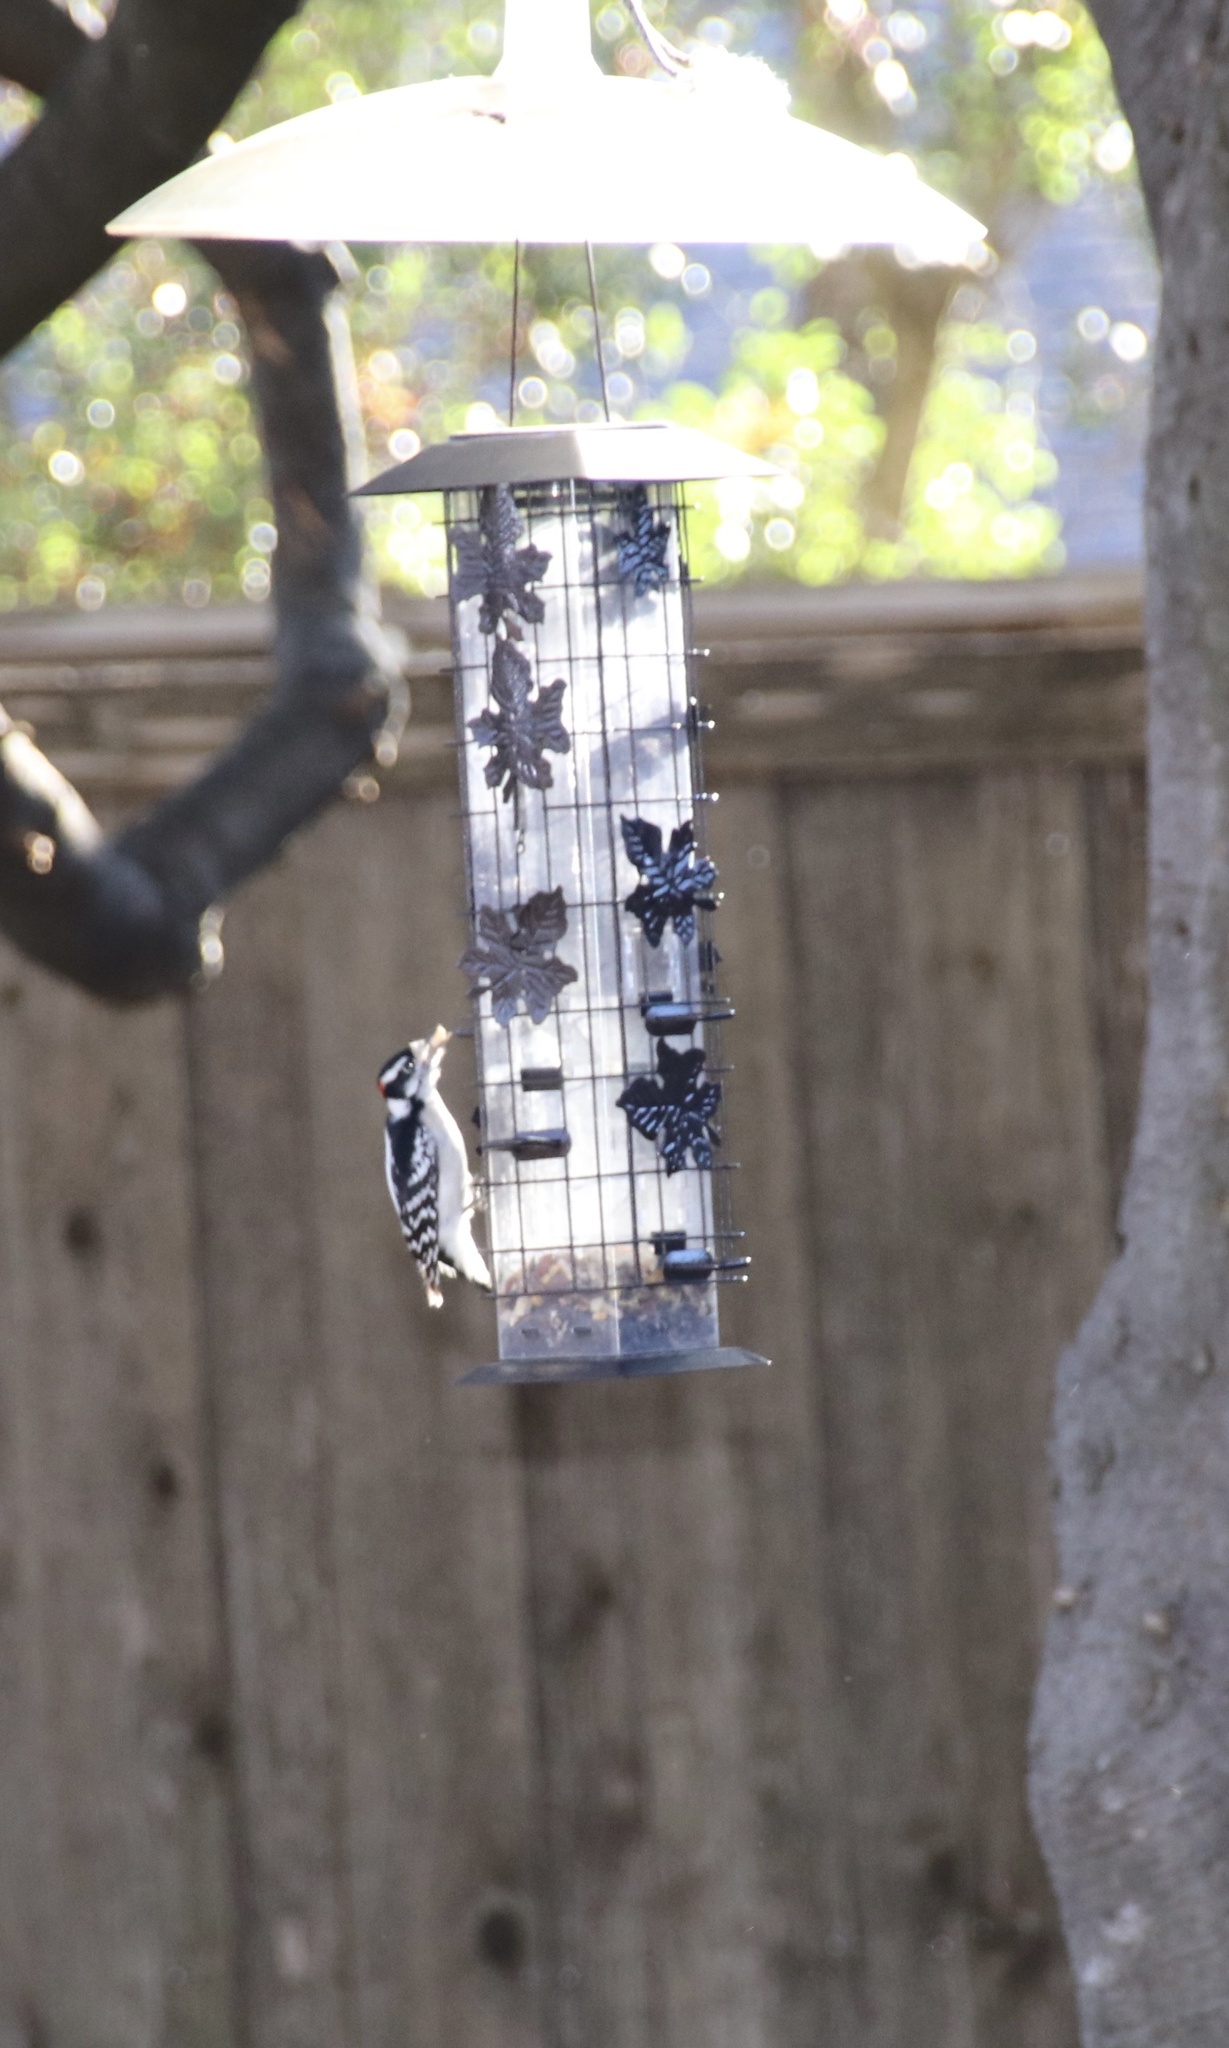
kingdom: Animalia
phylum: Chordata
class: Aves
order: Piciformes
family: Picidae
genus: Dryobates
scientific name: Dryobates pubescens
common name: Downy woodpecker
